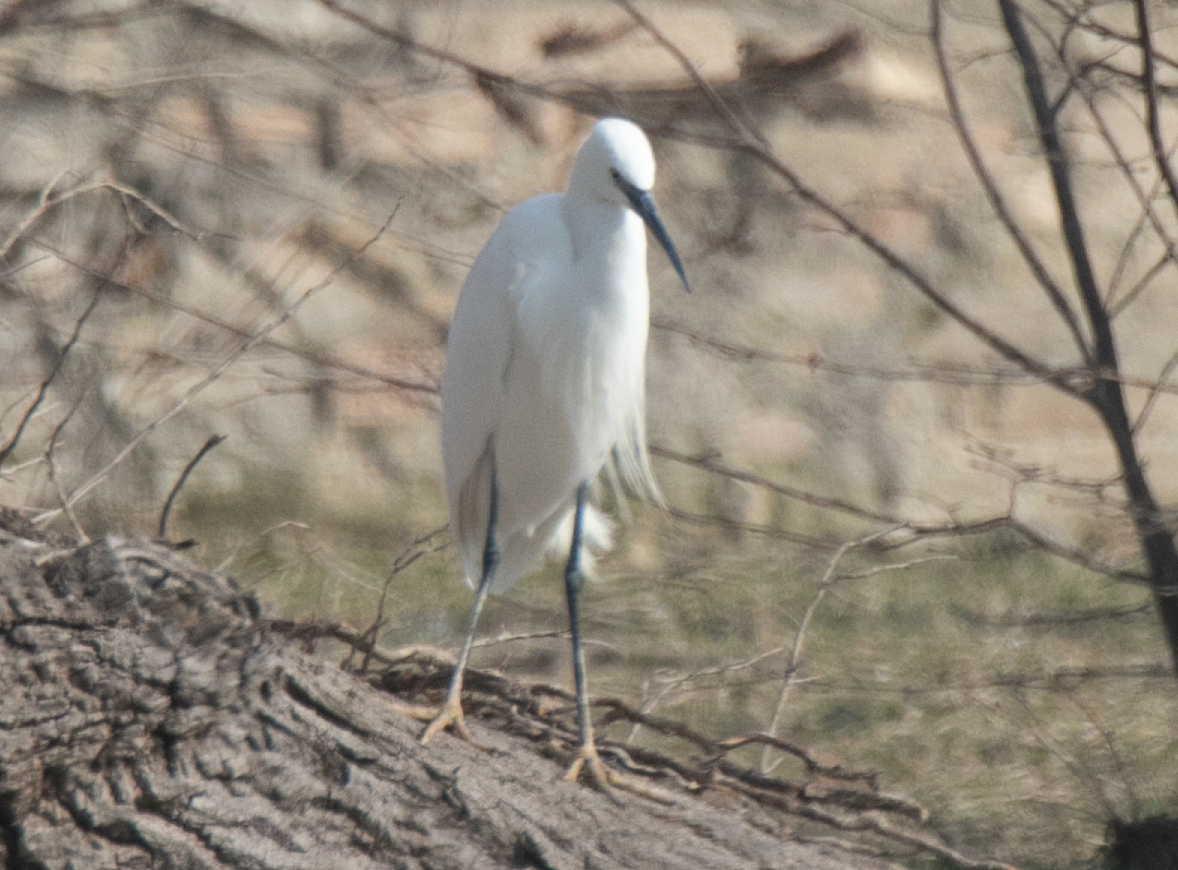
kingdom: Animalia
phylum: Chordata
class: Aves
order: Pelecaniformes
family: Ardeidae
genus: Egretta
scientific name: Egretta garzetta
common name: Little egret
